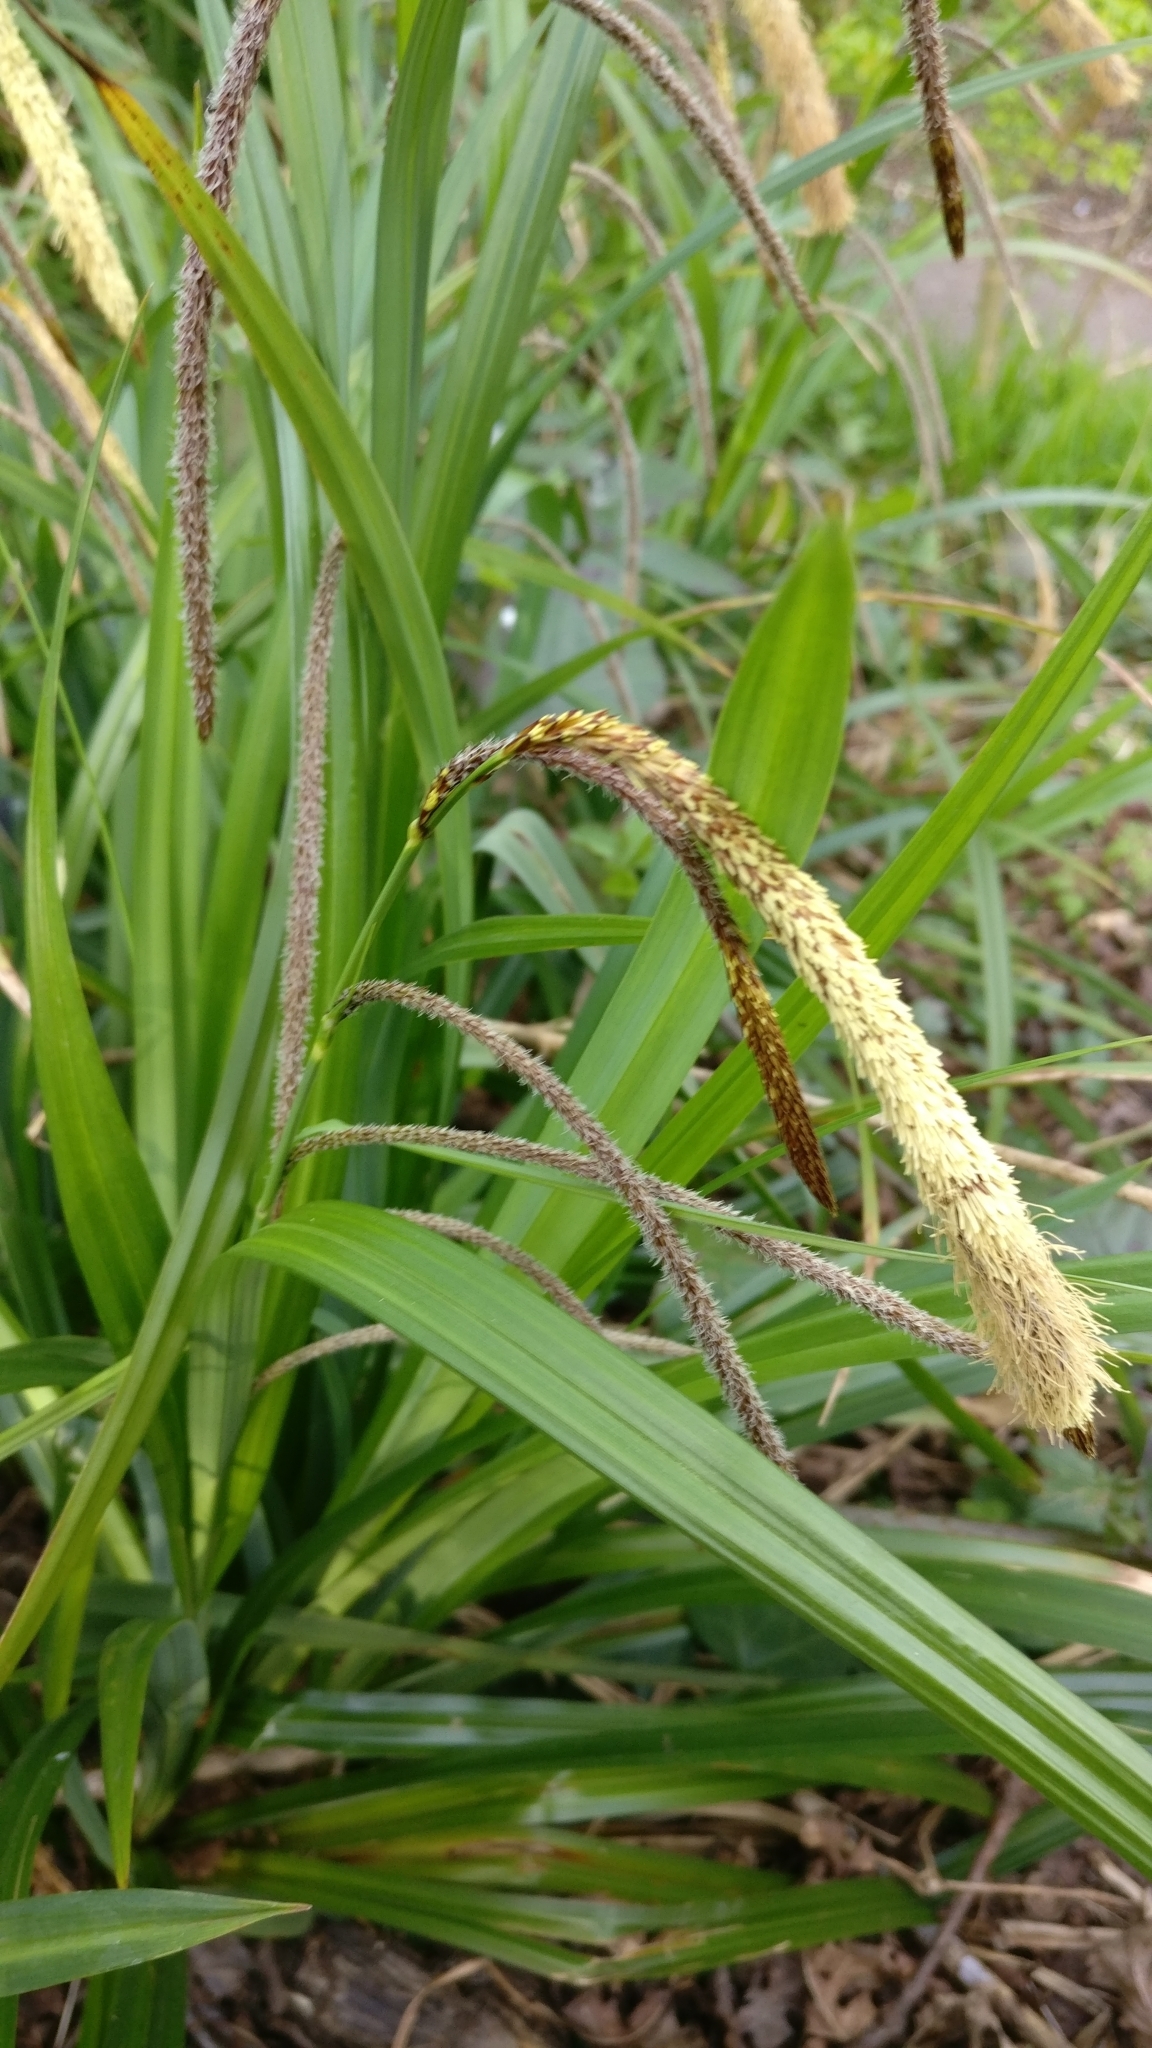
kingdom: Plantae
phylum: Tracheophyta
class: Liliopsida
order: Poales
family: Cyperaceae
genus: Carex
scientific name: Carex pendula
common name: Pendulous sedge
